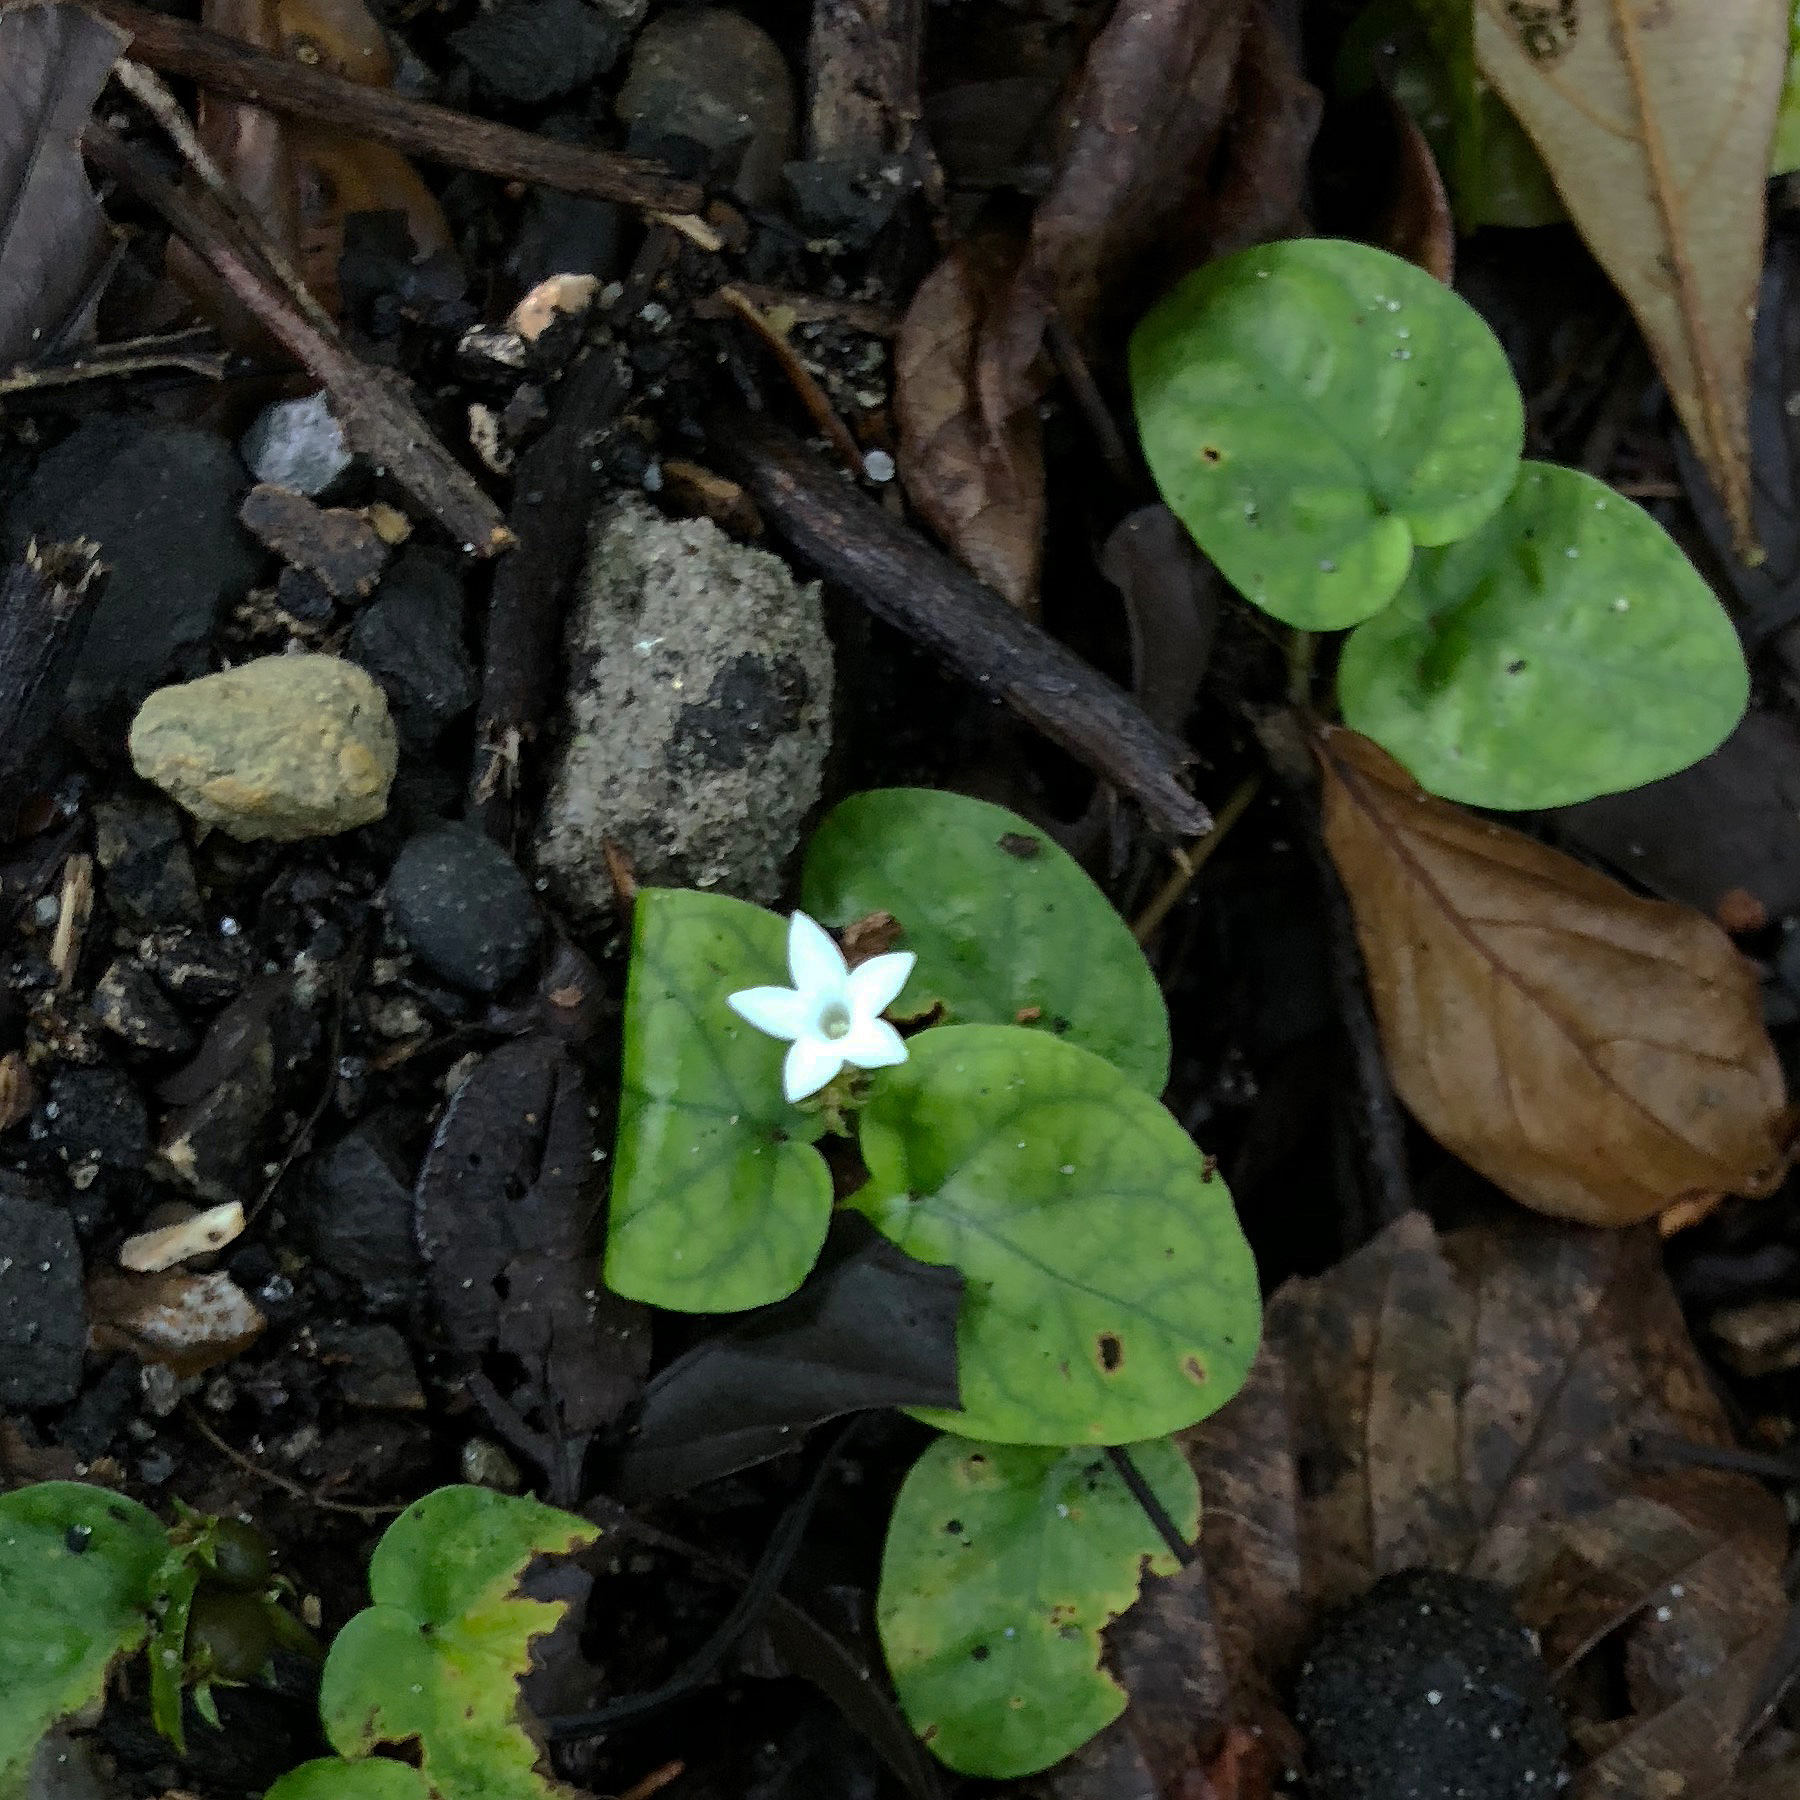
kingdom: Plantae
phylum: Tracheophyta
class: Magnoliopsida
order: Gentianales
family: Rubiaceae
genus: Geophila
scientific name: Geophila repens
